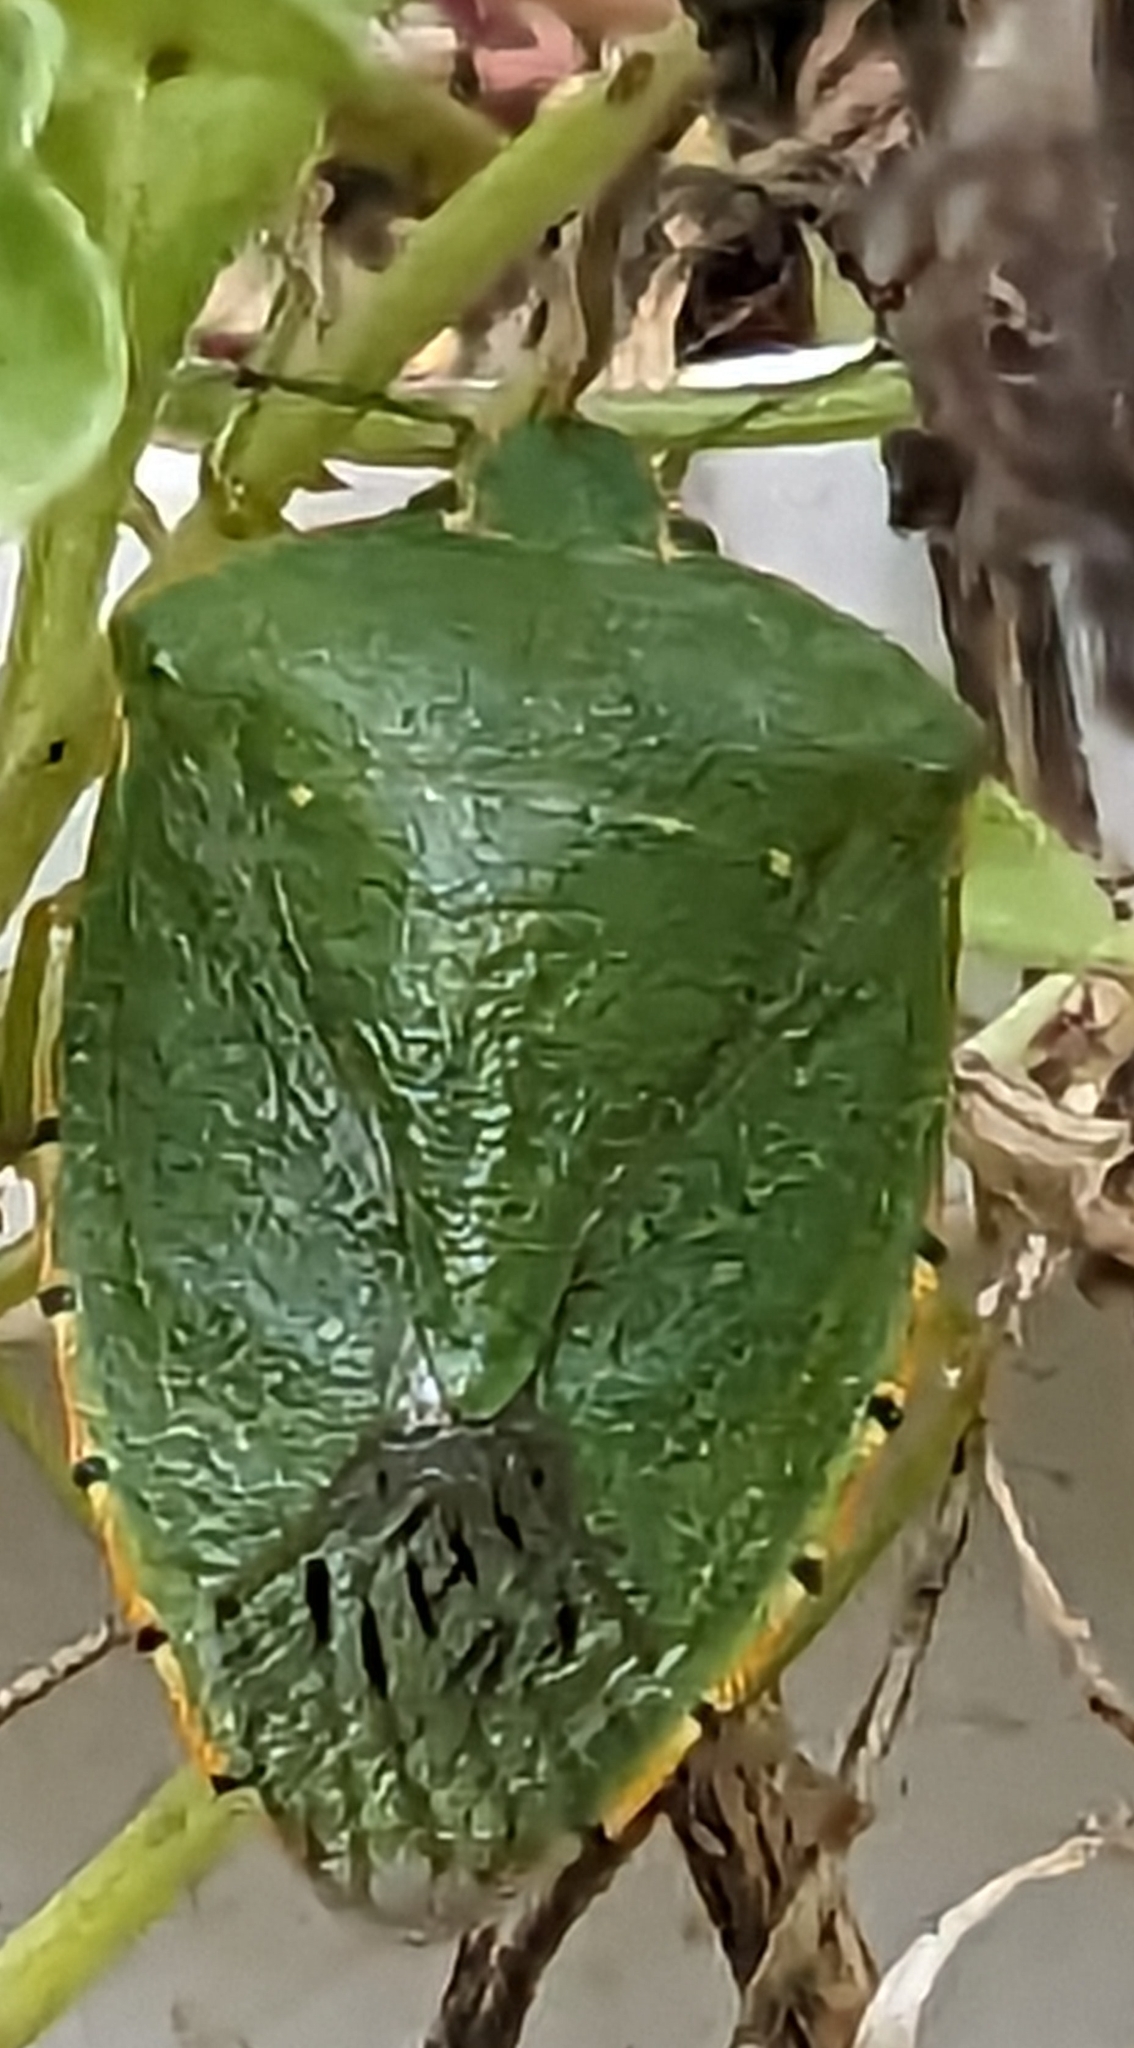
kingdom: Animalia
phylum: Arthropoda
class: Insecta
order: Hemiptera
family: Pentatomidae
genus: Chinavia
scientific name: Chinavia hilaris
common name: Green stink bug
